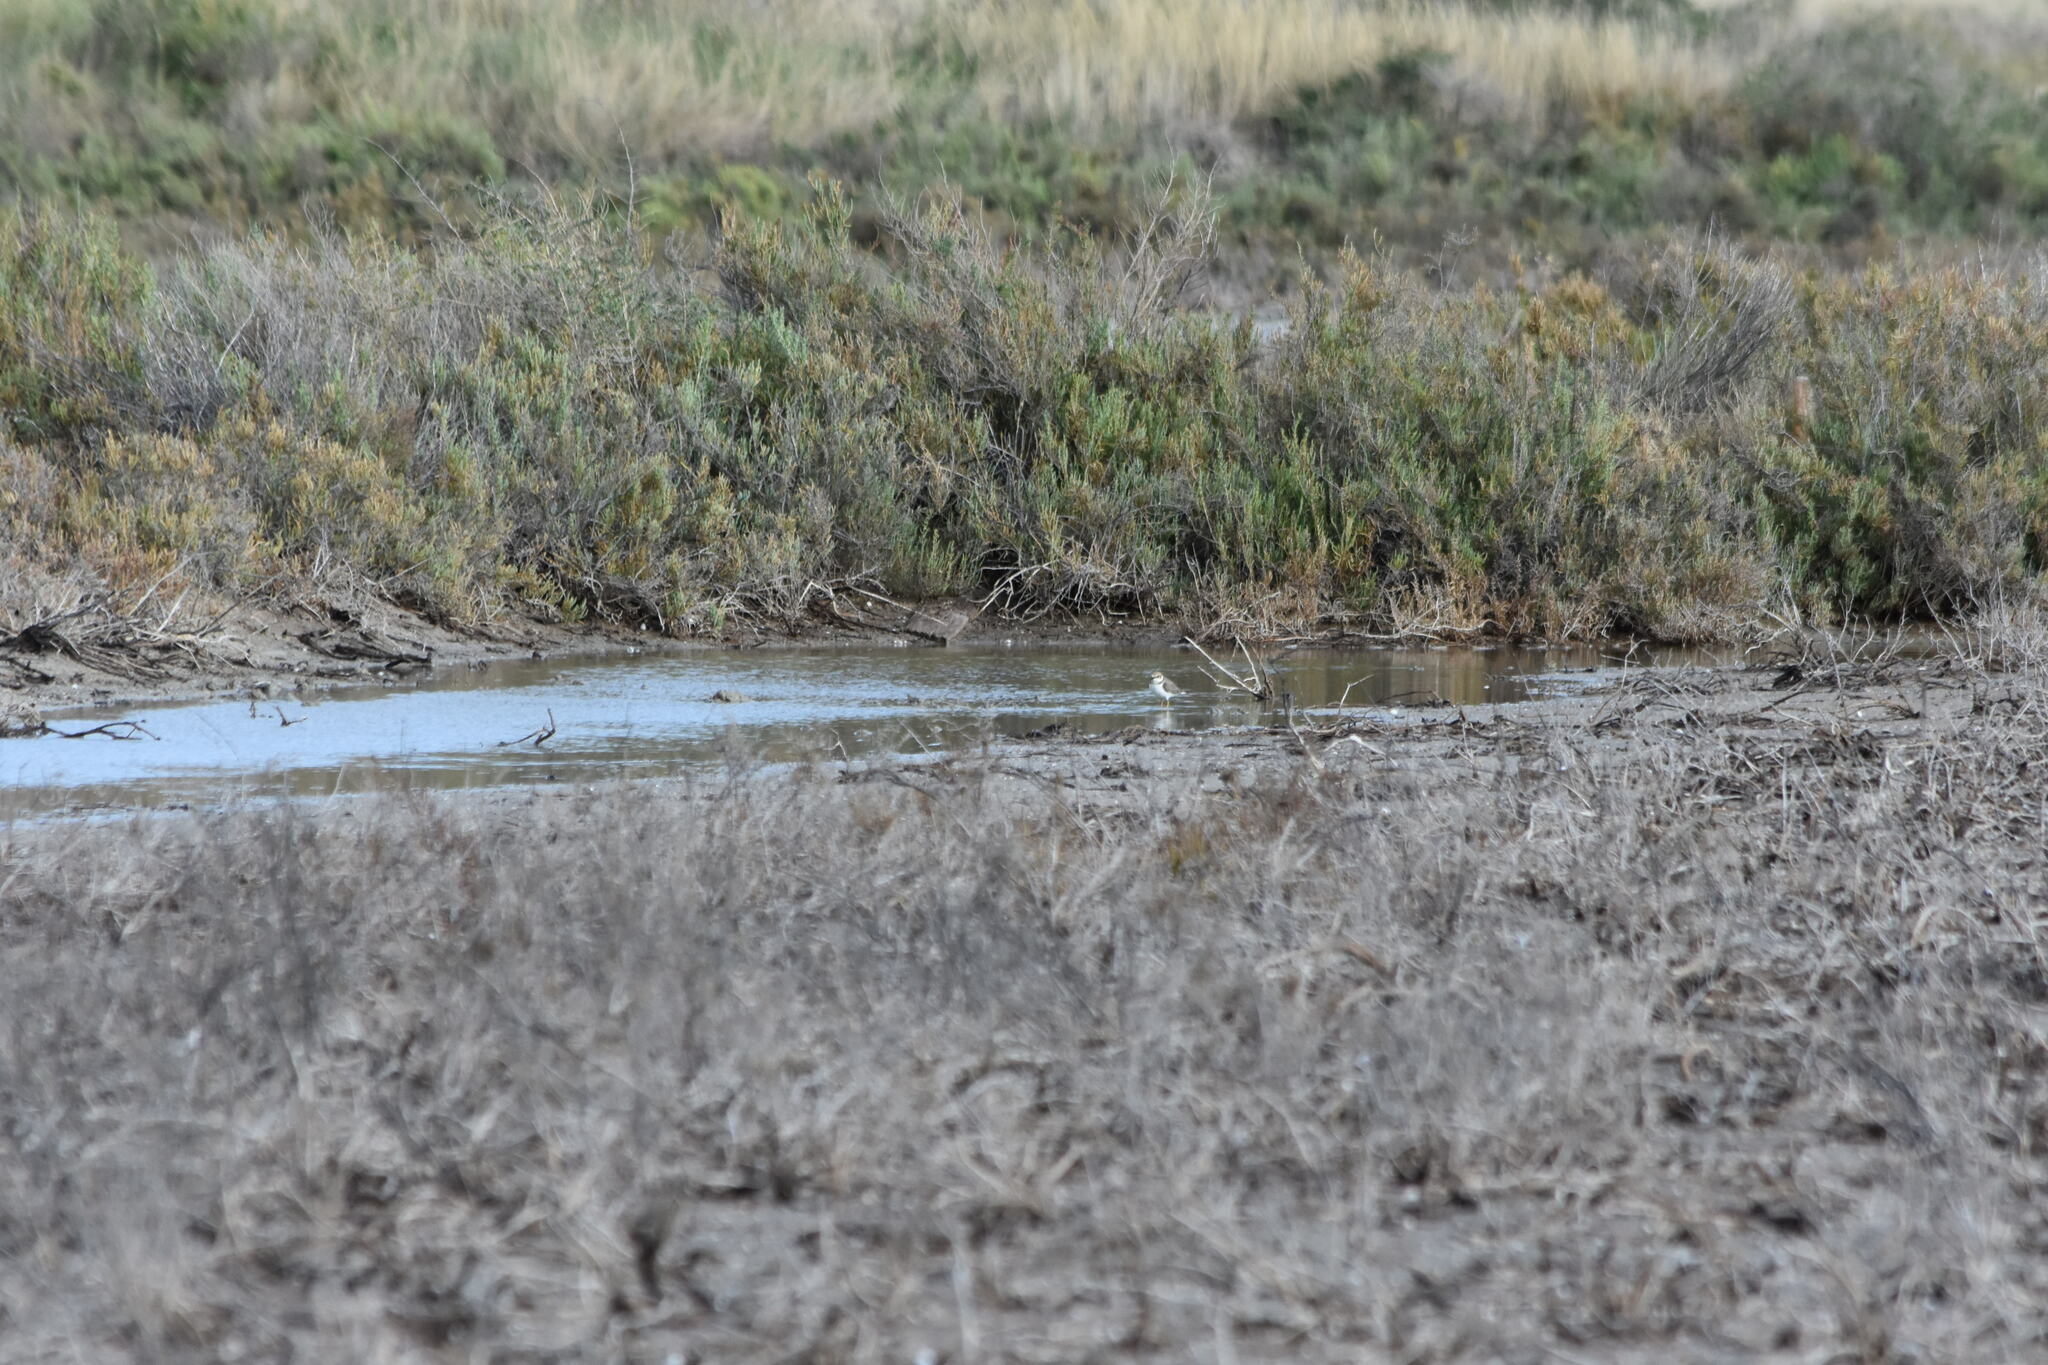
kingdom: Animalia
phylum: Chordata
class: Aves
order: Charadriiformes
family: Charadriidae
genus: Charadrius
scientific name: Charadrius alexandrinus
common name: Kentish plover
